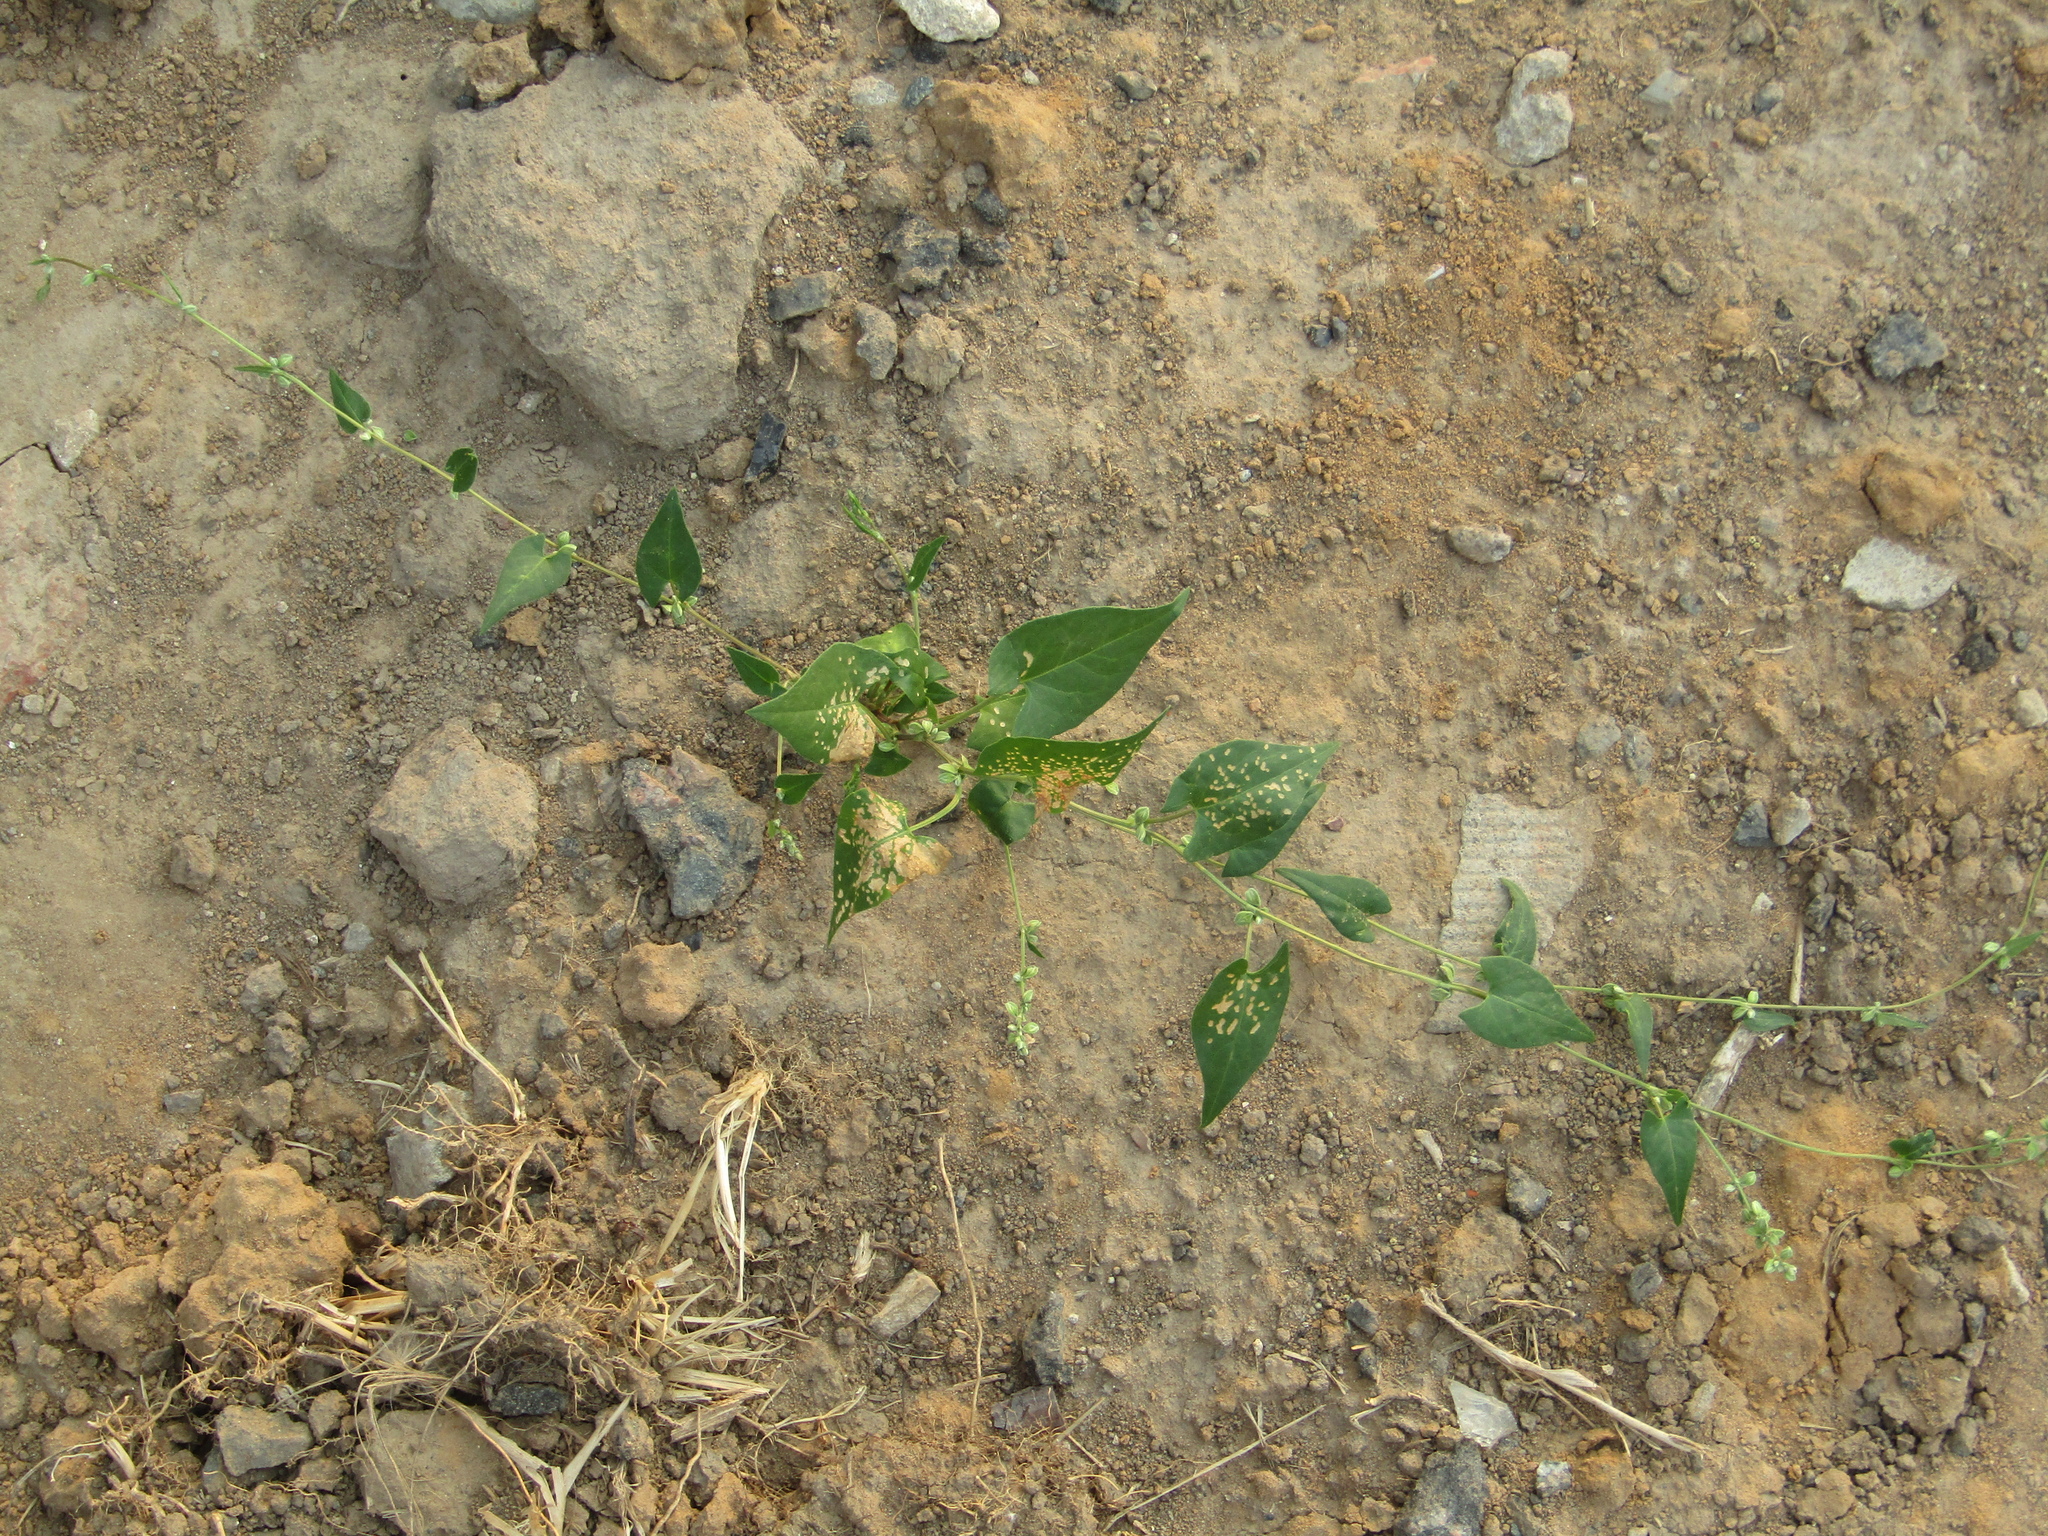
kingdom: Plantae
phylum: Tracheophyta
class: Magnoliopsida
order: Caryophyllales
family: Polygonaceae
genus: Fallopia
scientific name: Fallopia convolvulus
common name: Black bindweed
